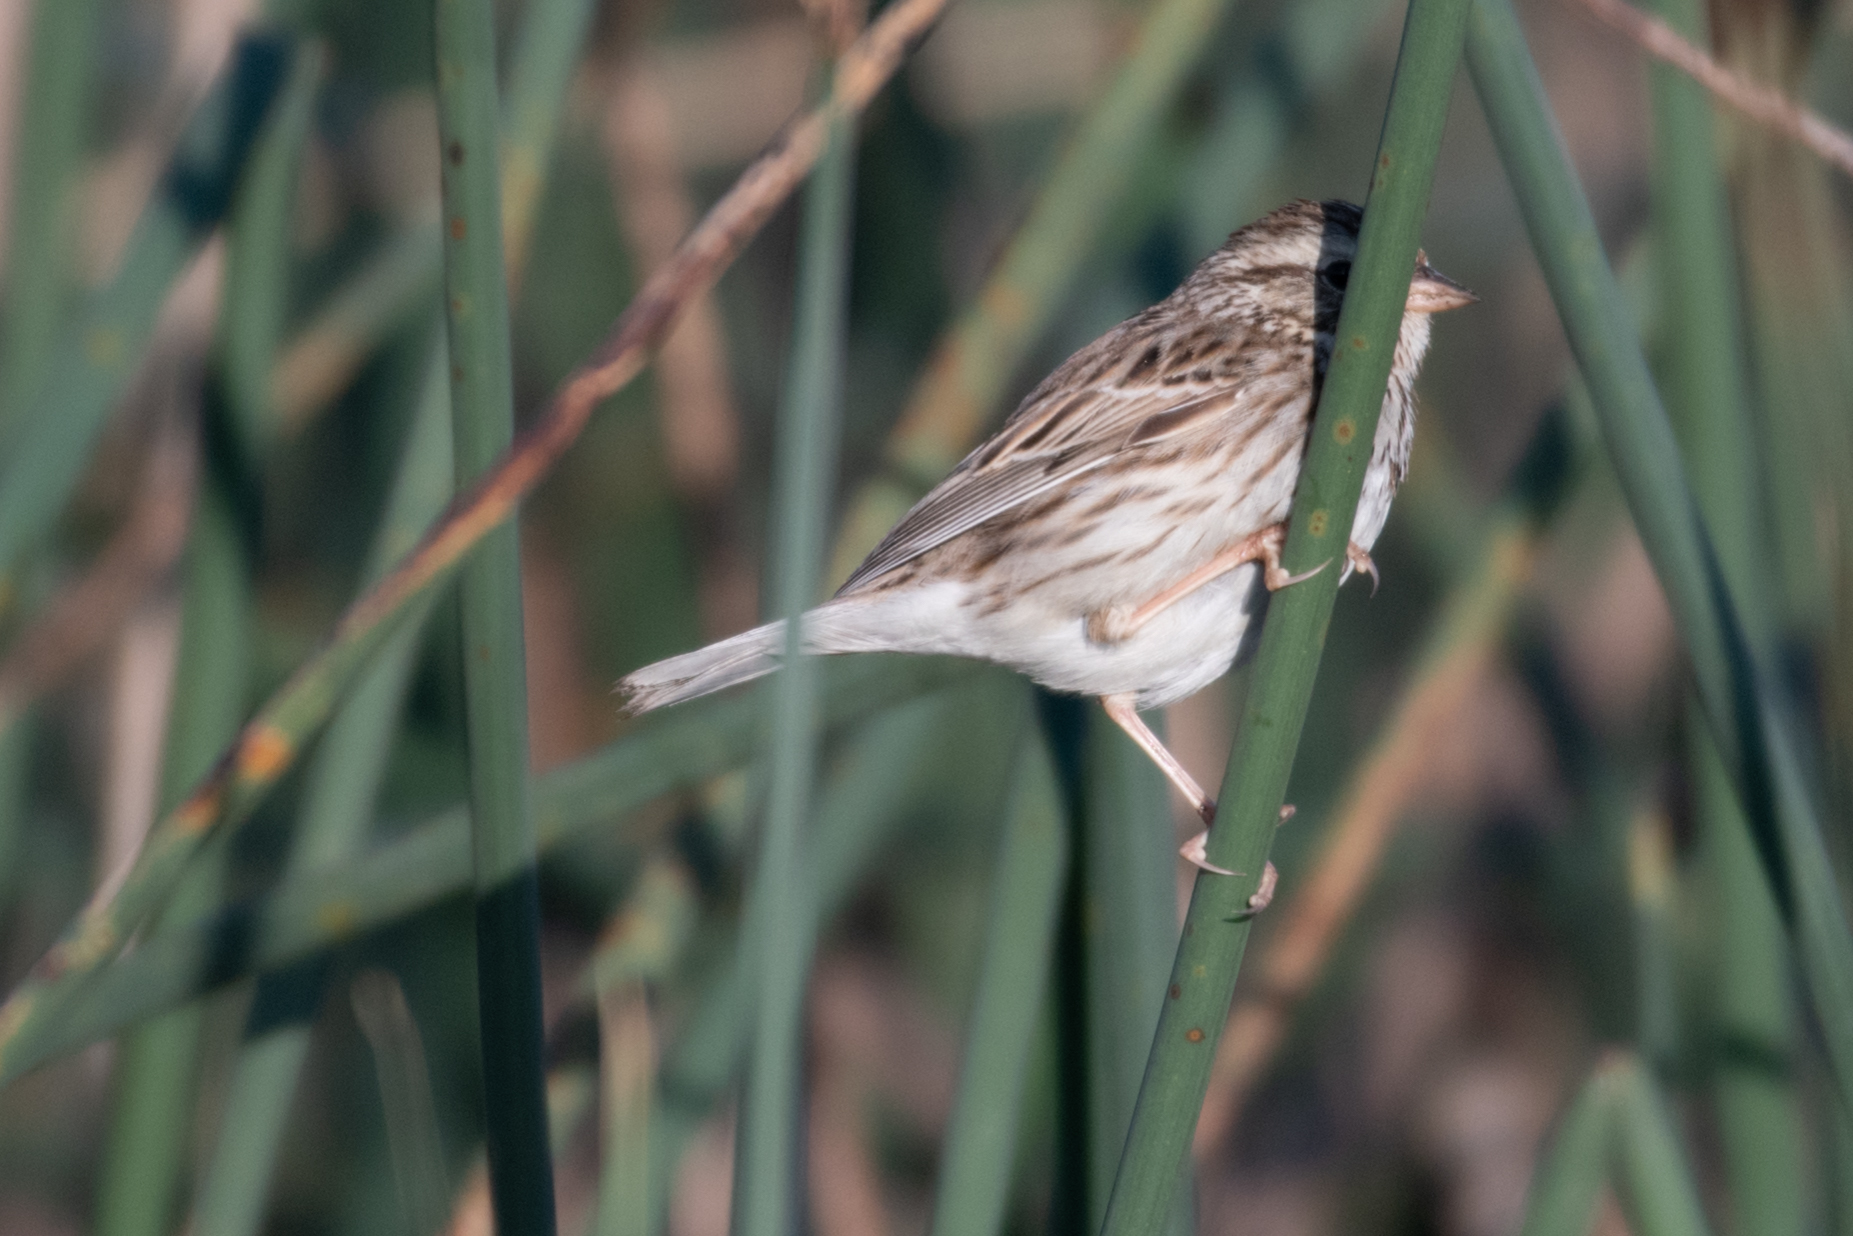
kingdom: Animalia
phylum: Chordata
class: Aves
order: Passeriformes
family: Passerellidae
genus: Passerculus
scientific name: Passerculus sandwichensis
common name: Savannah sparrow
